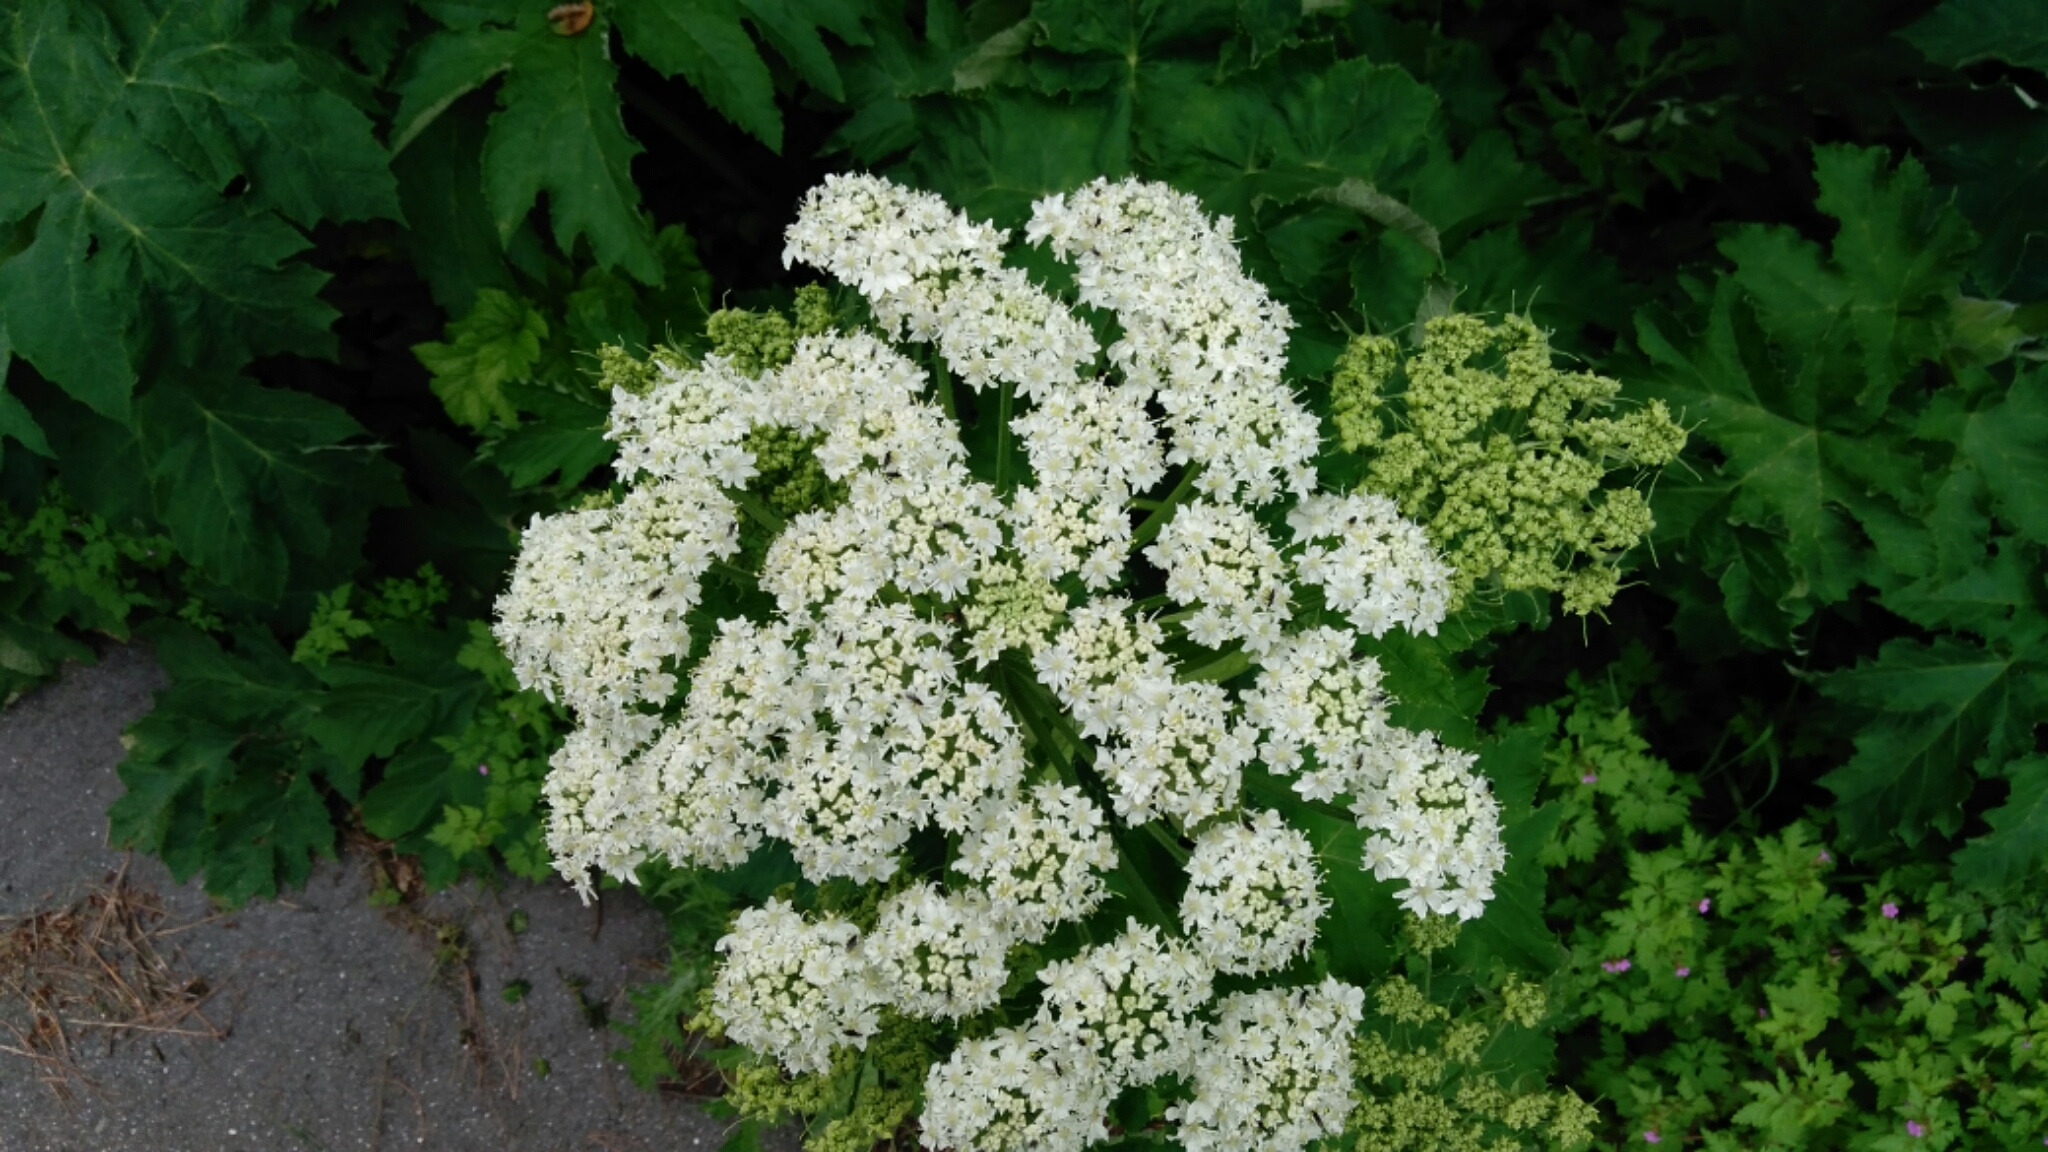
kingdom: Plantae
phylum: Tracheophyta
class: Magnoliopsida
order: Apiales
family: Apiaceae
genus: Heracleum
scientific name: Heracleum maximum
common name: American cow parsnip
